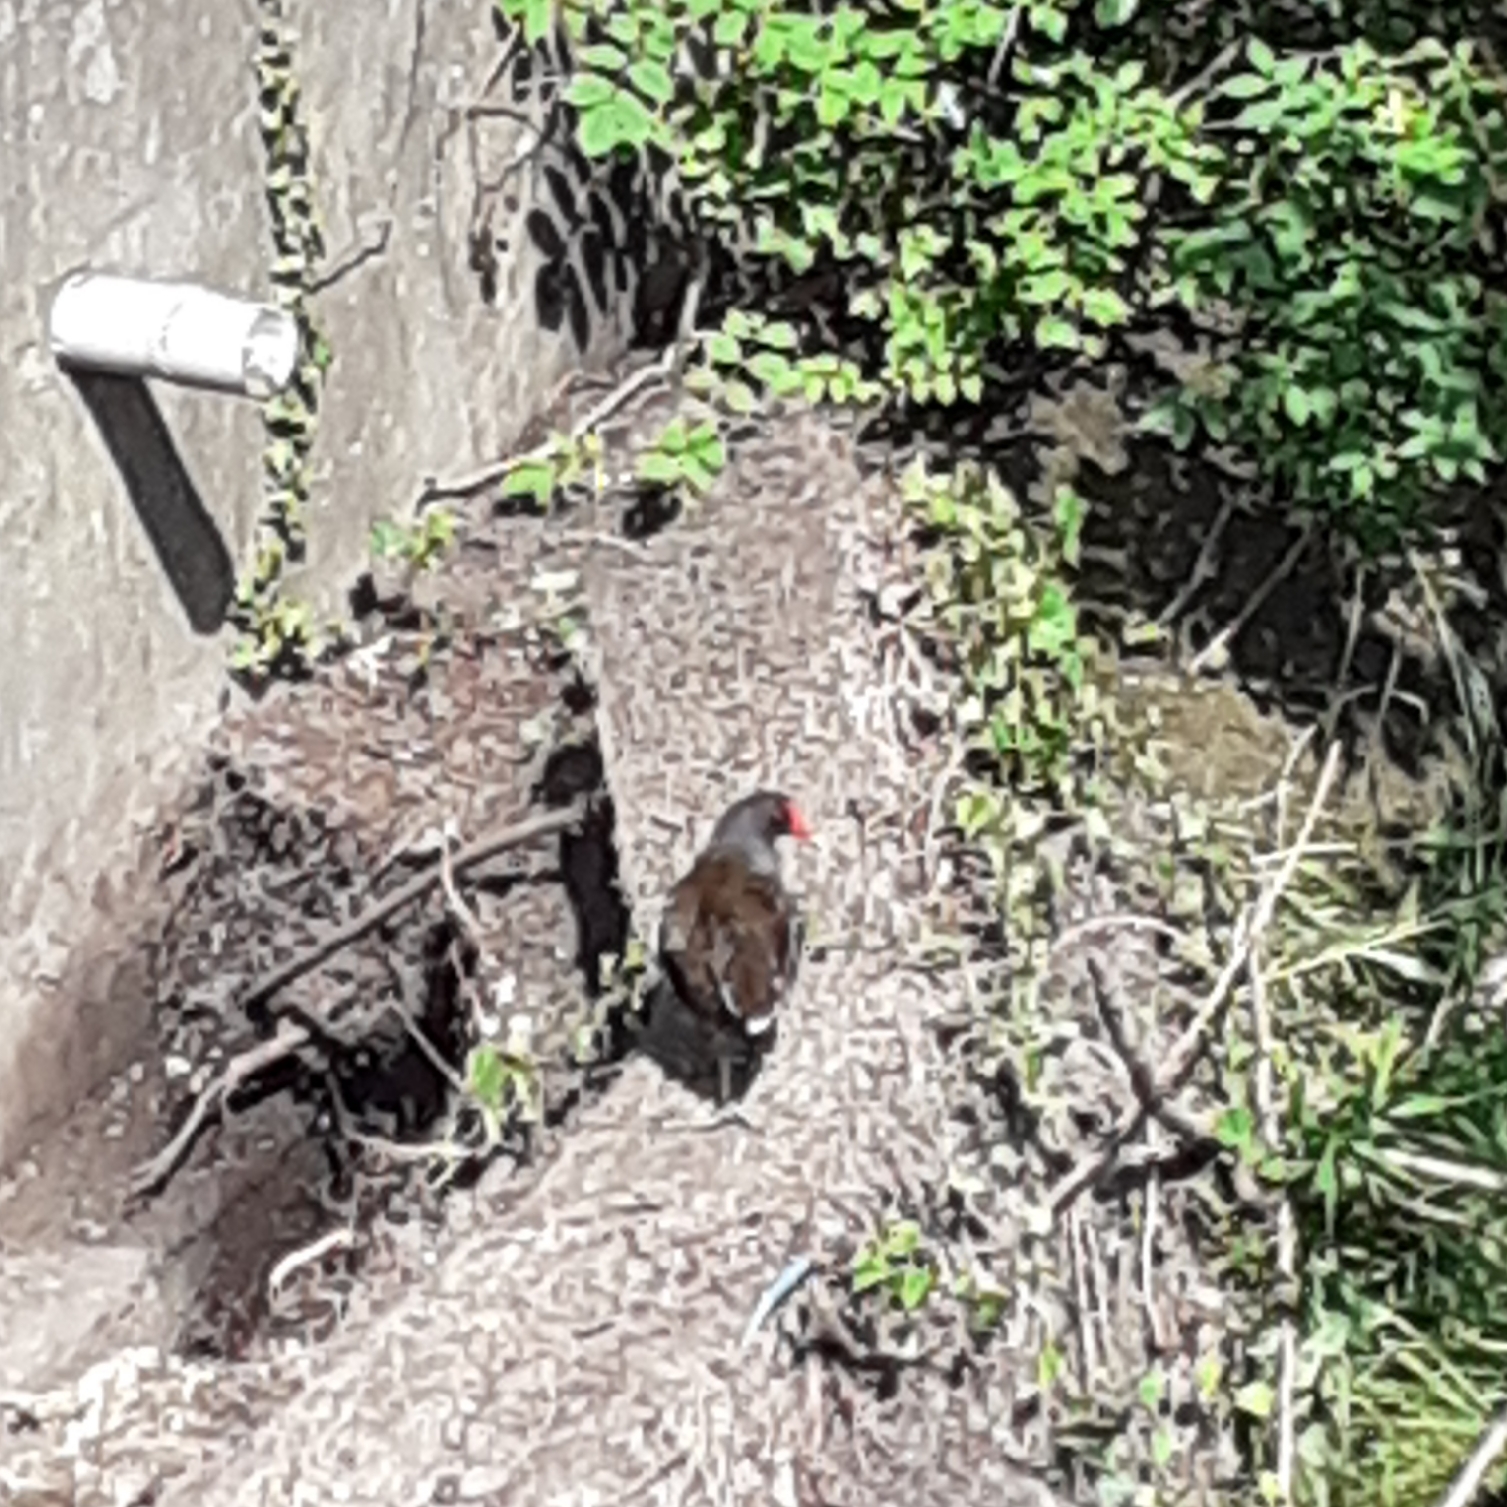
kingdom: Animalia
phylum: Chordata
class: Aves
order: Gruiformes
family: Rallidae
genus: Gallinula
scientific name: Gallinula chloropus
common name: Common moorhen
